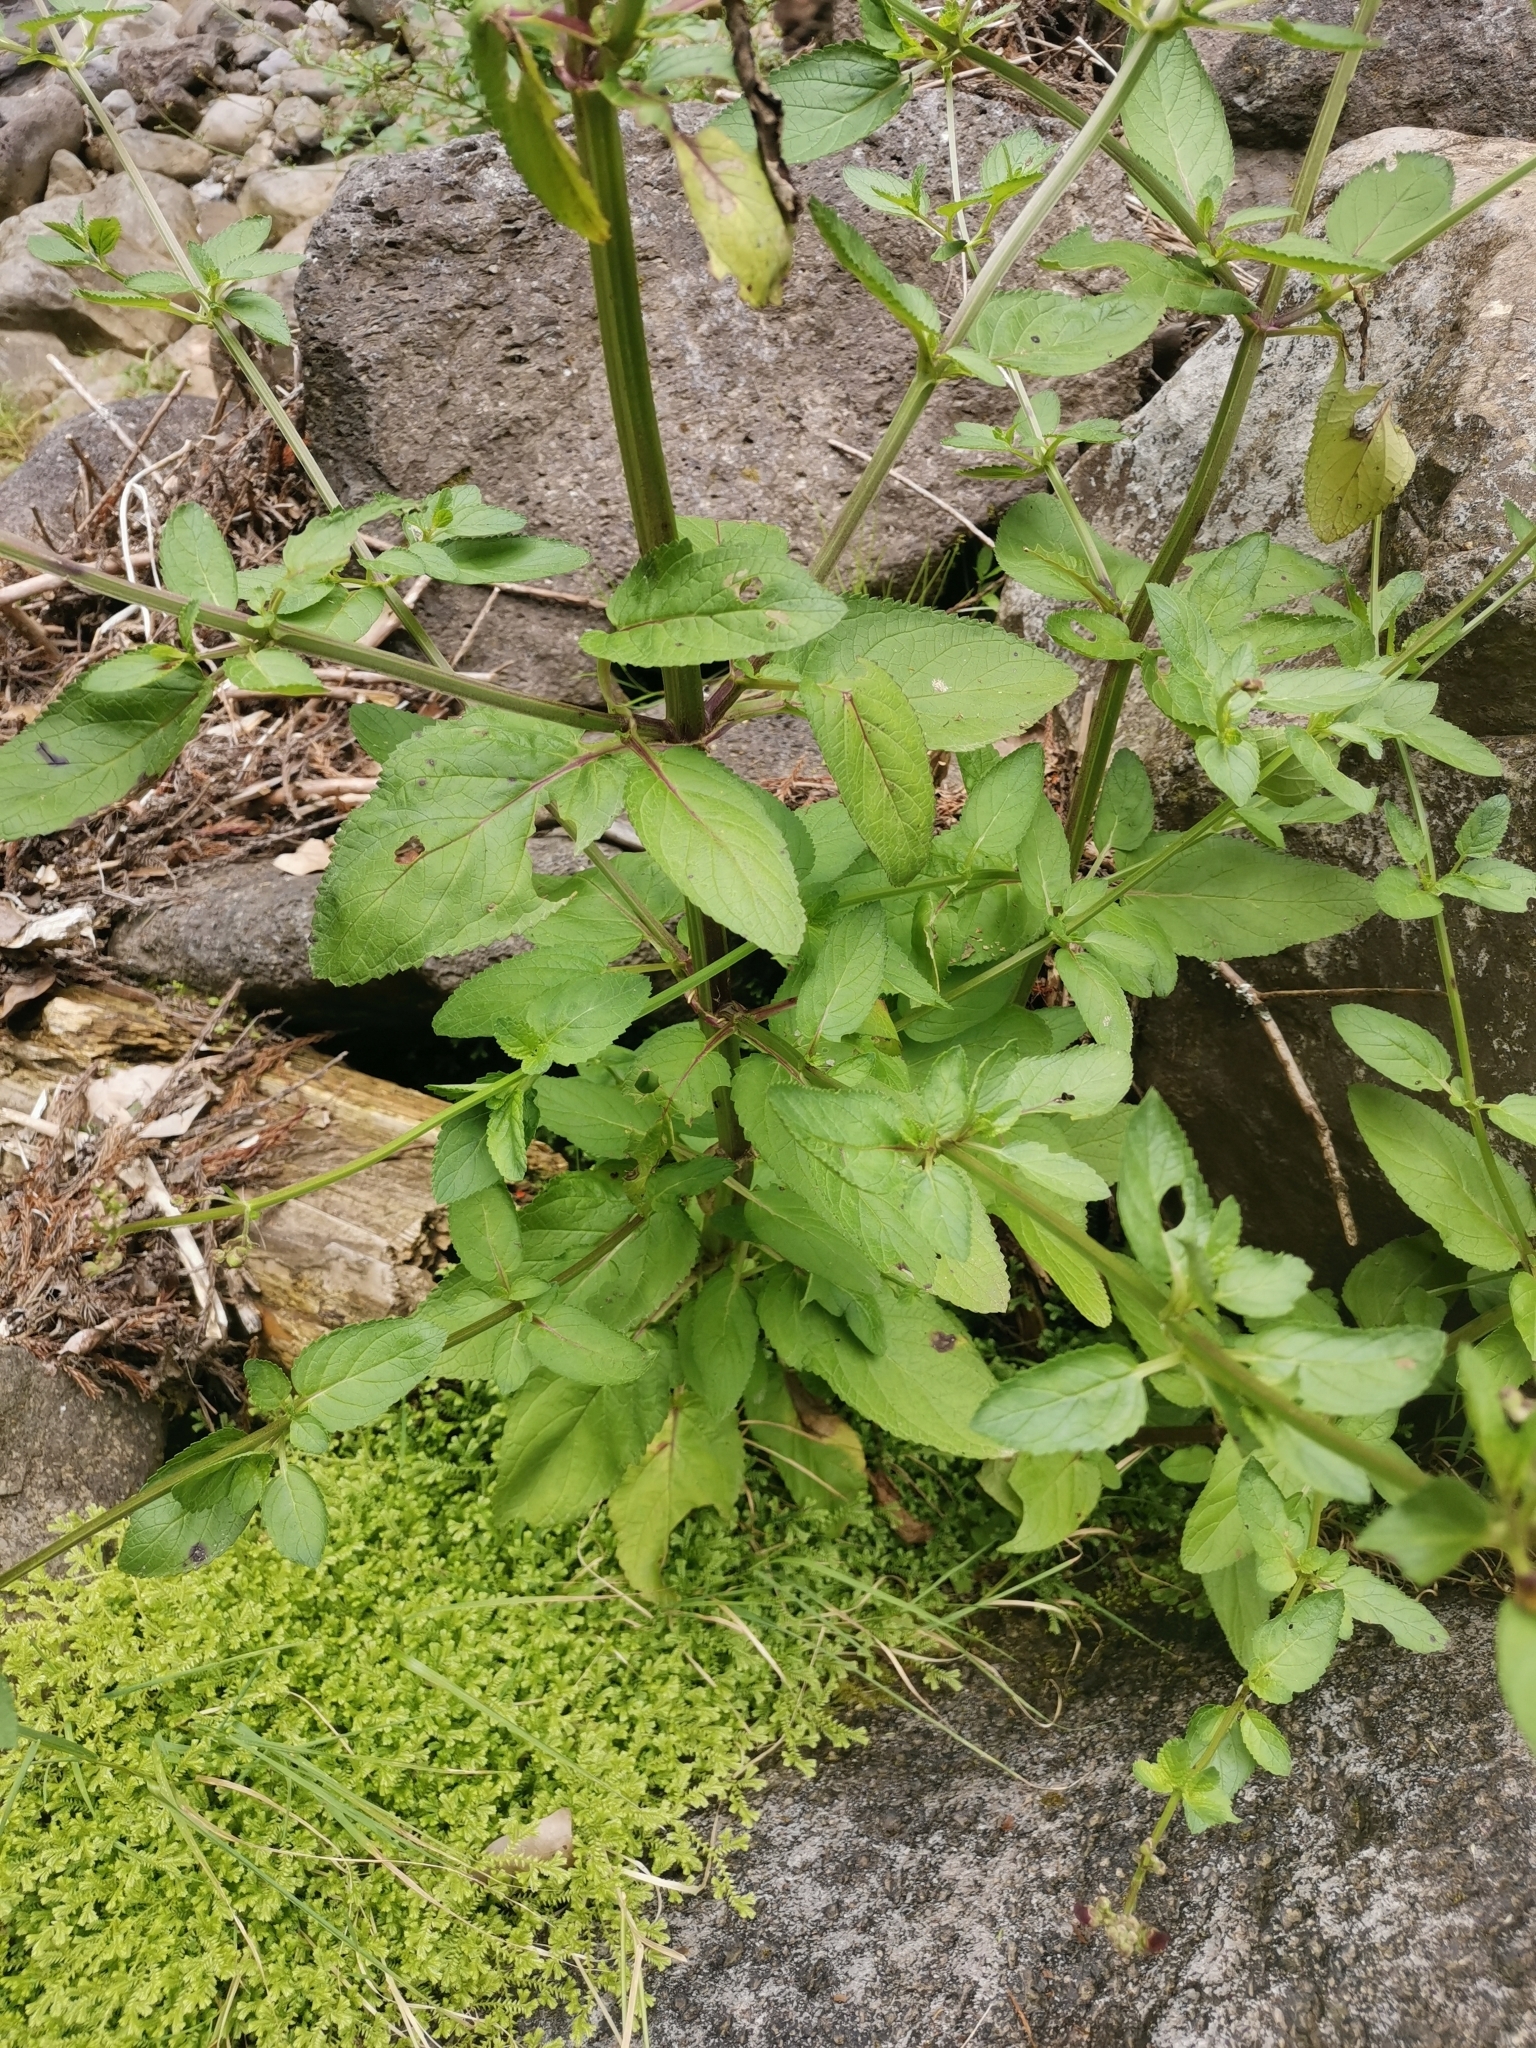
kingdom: Plantae
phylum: Tracheophyta
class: Magnoliopsida
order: Lamiales
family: Scrophulariaceae
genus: Scrophularia
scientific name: Scrophularia auriculata
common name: Water betony
